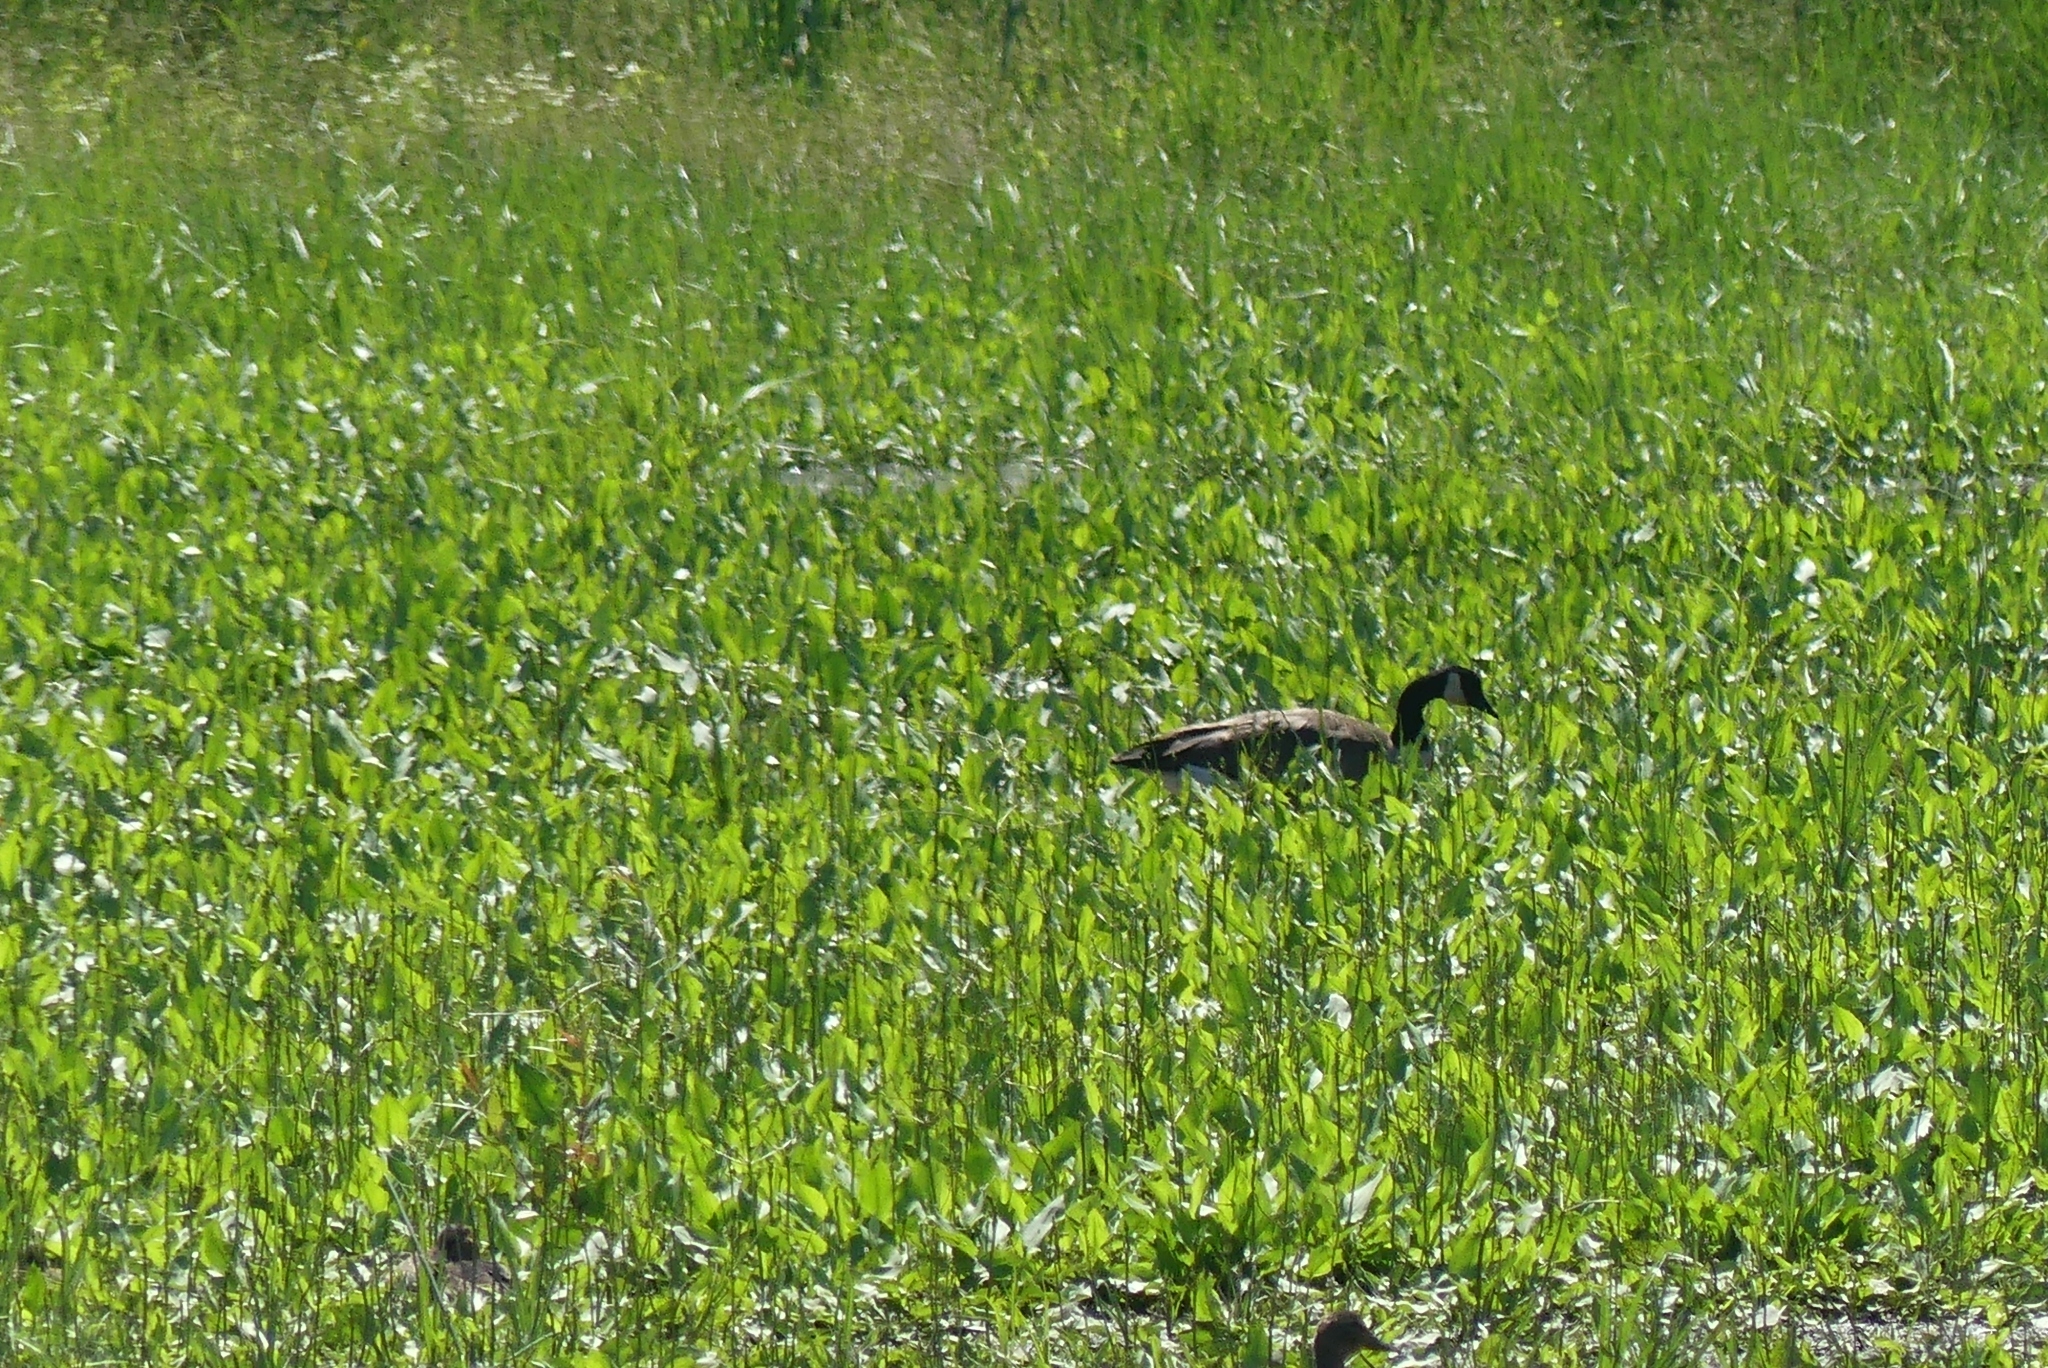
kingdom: Animalia
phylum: Chordata
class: Aves
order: Anseriformes
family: Anatidae
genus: Branta
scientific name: Branta canadensis
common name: Canada goose
